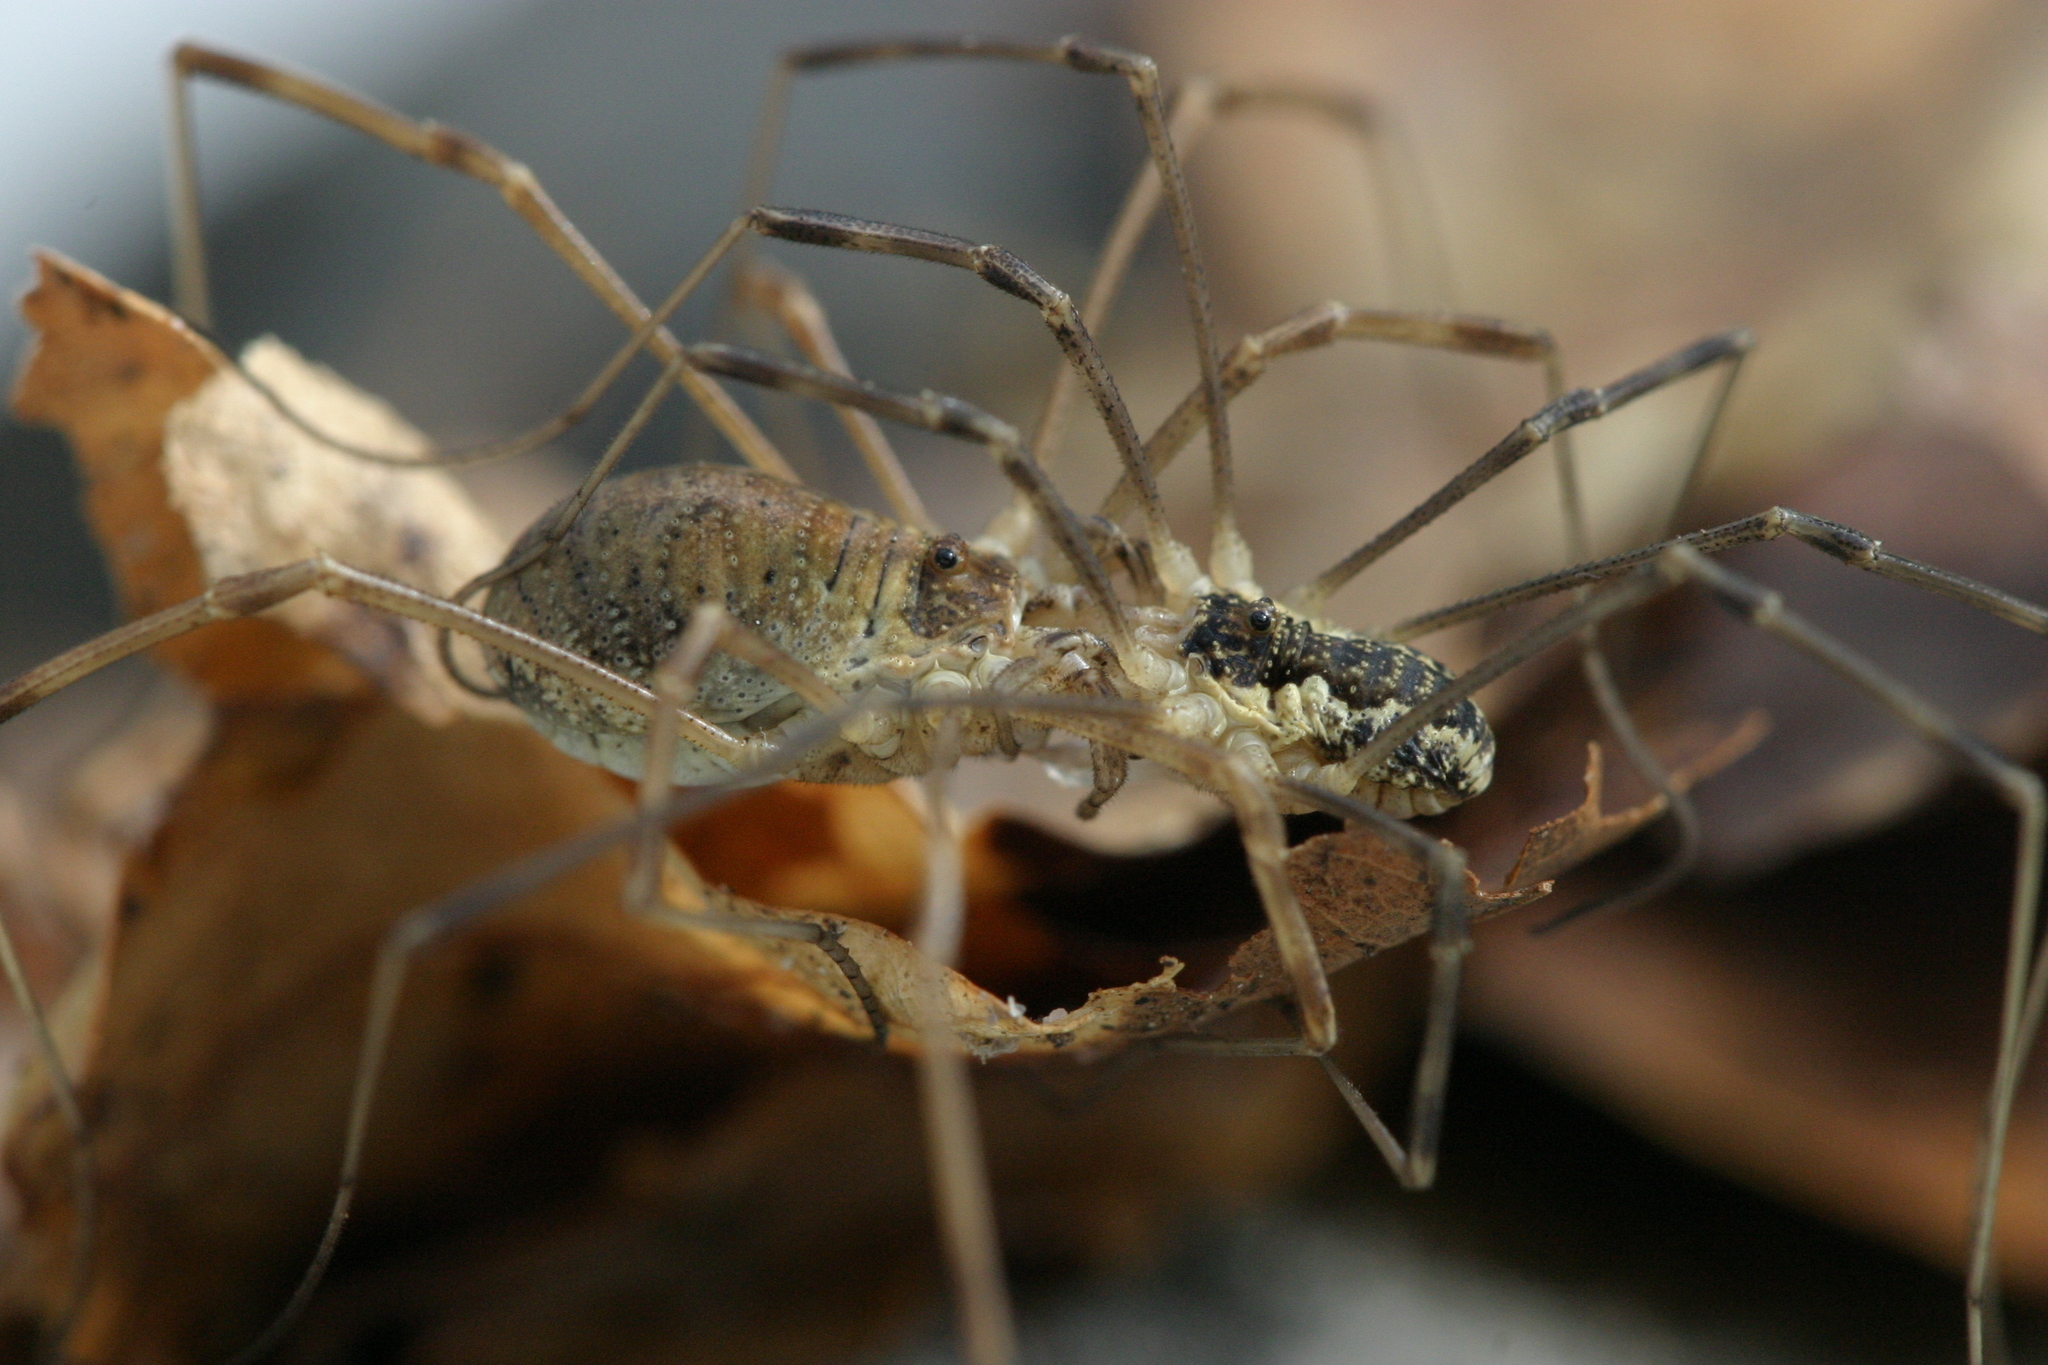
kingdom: Animalia
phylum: Arthropoda
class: Arachnida
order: Opiliones
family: Phalangiidae
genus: Mitopus
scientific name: Mitopus morio
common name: Saddleback harvestman
